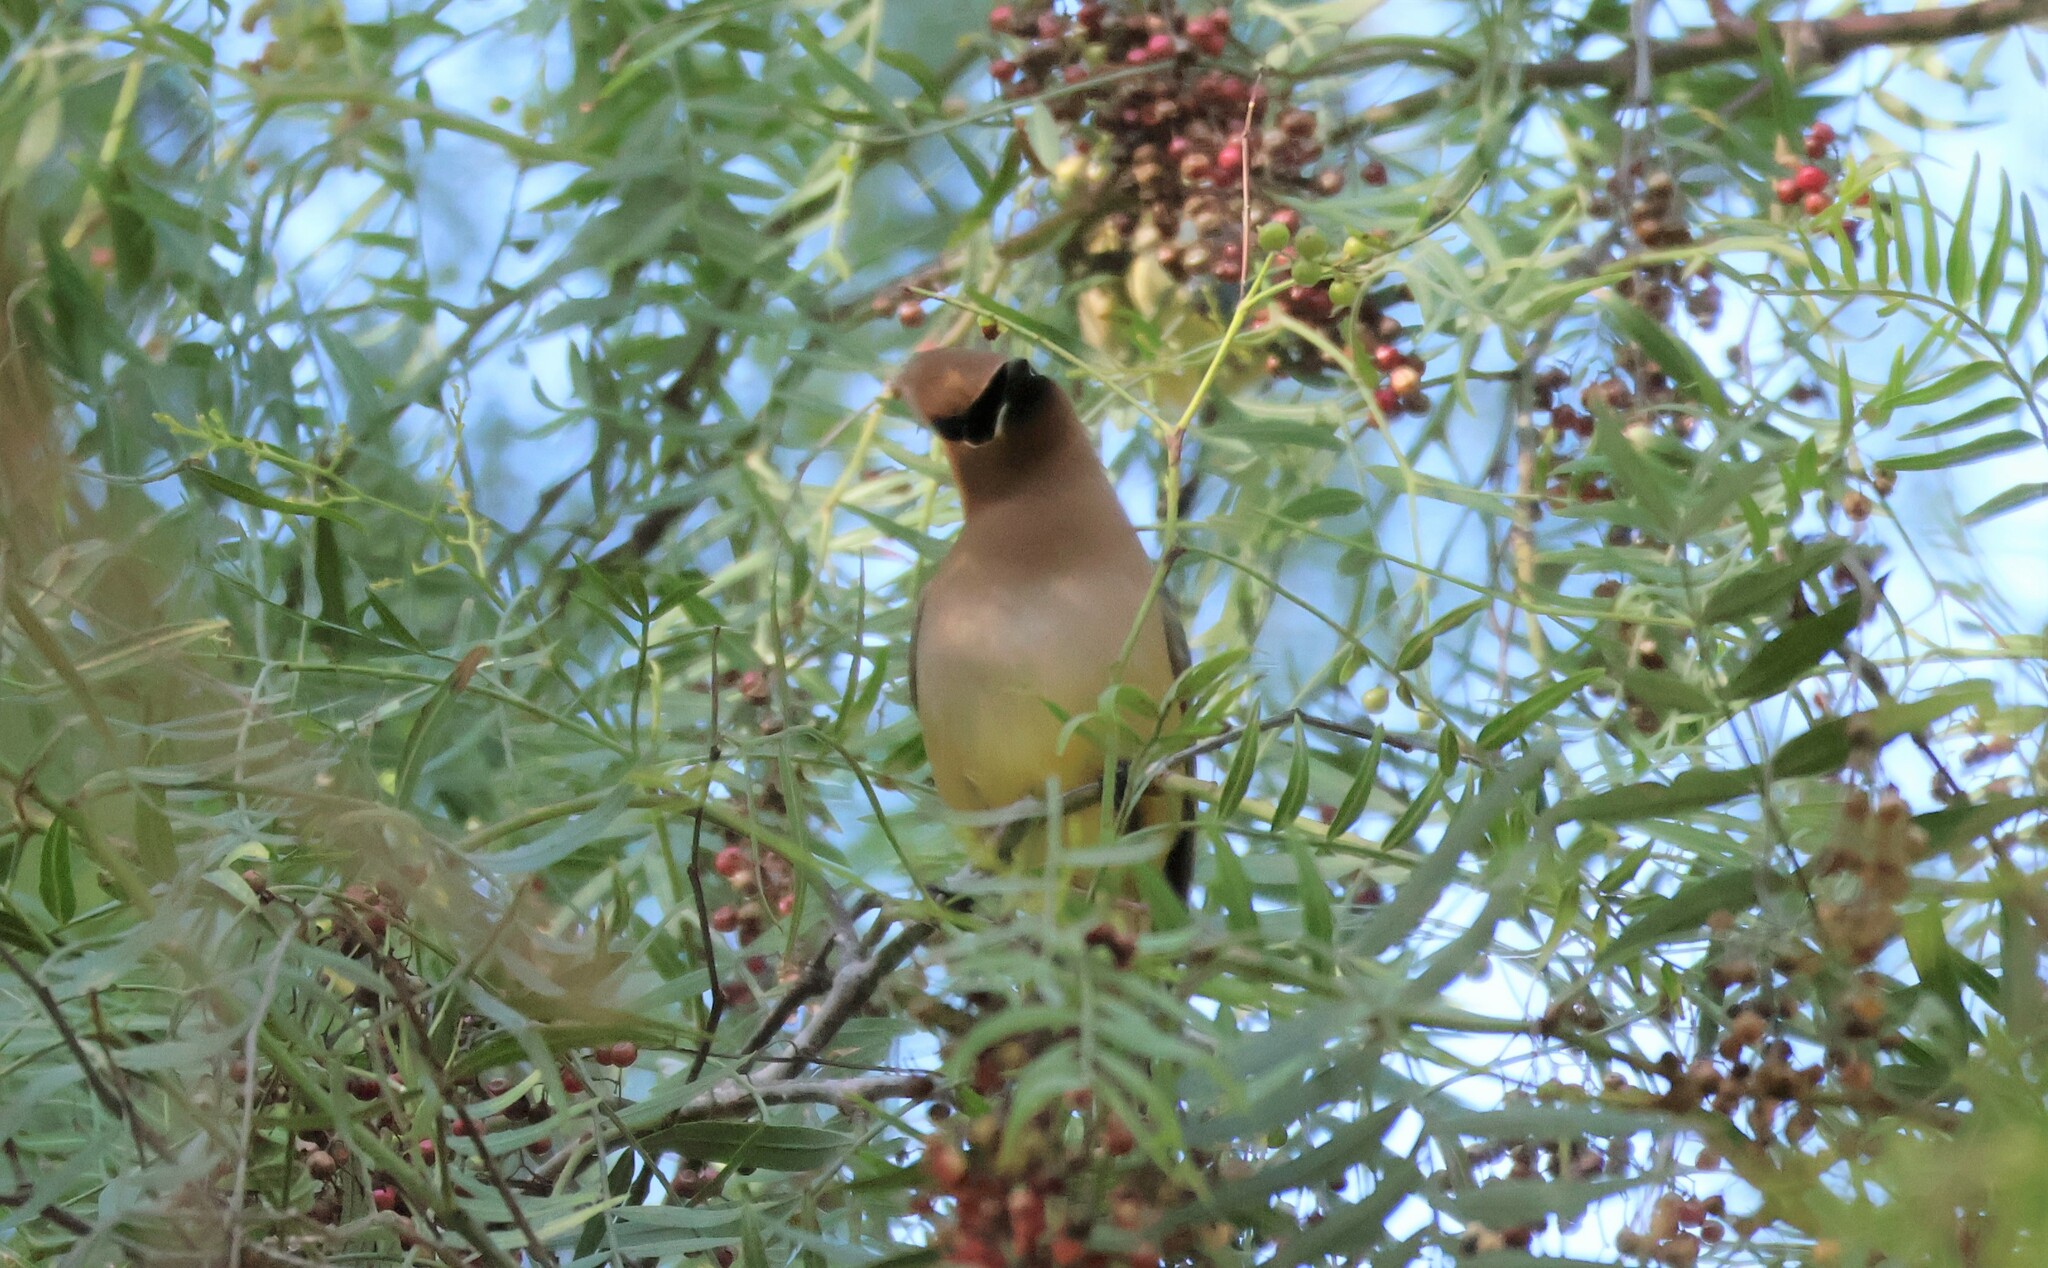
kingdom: Animalia
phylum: Chordata
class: Aves
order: Passeriformes
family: Bombycillidae
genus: Bombycilla
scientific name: Bombycilla cedrorum
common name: Cedar waxwing
